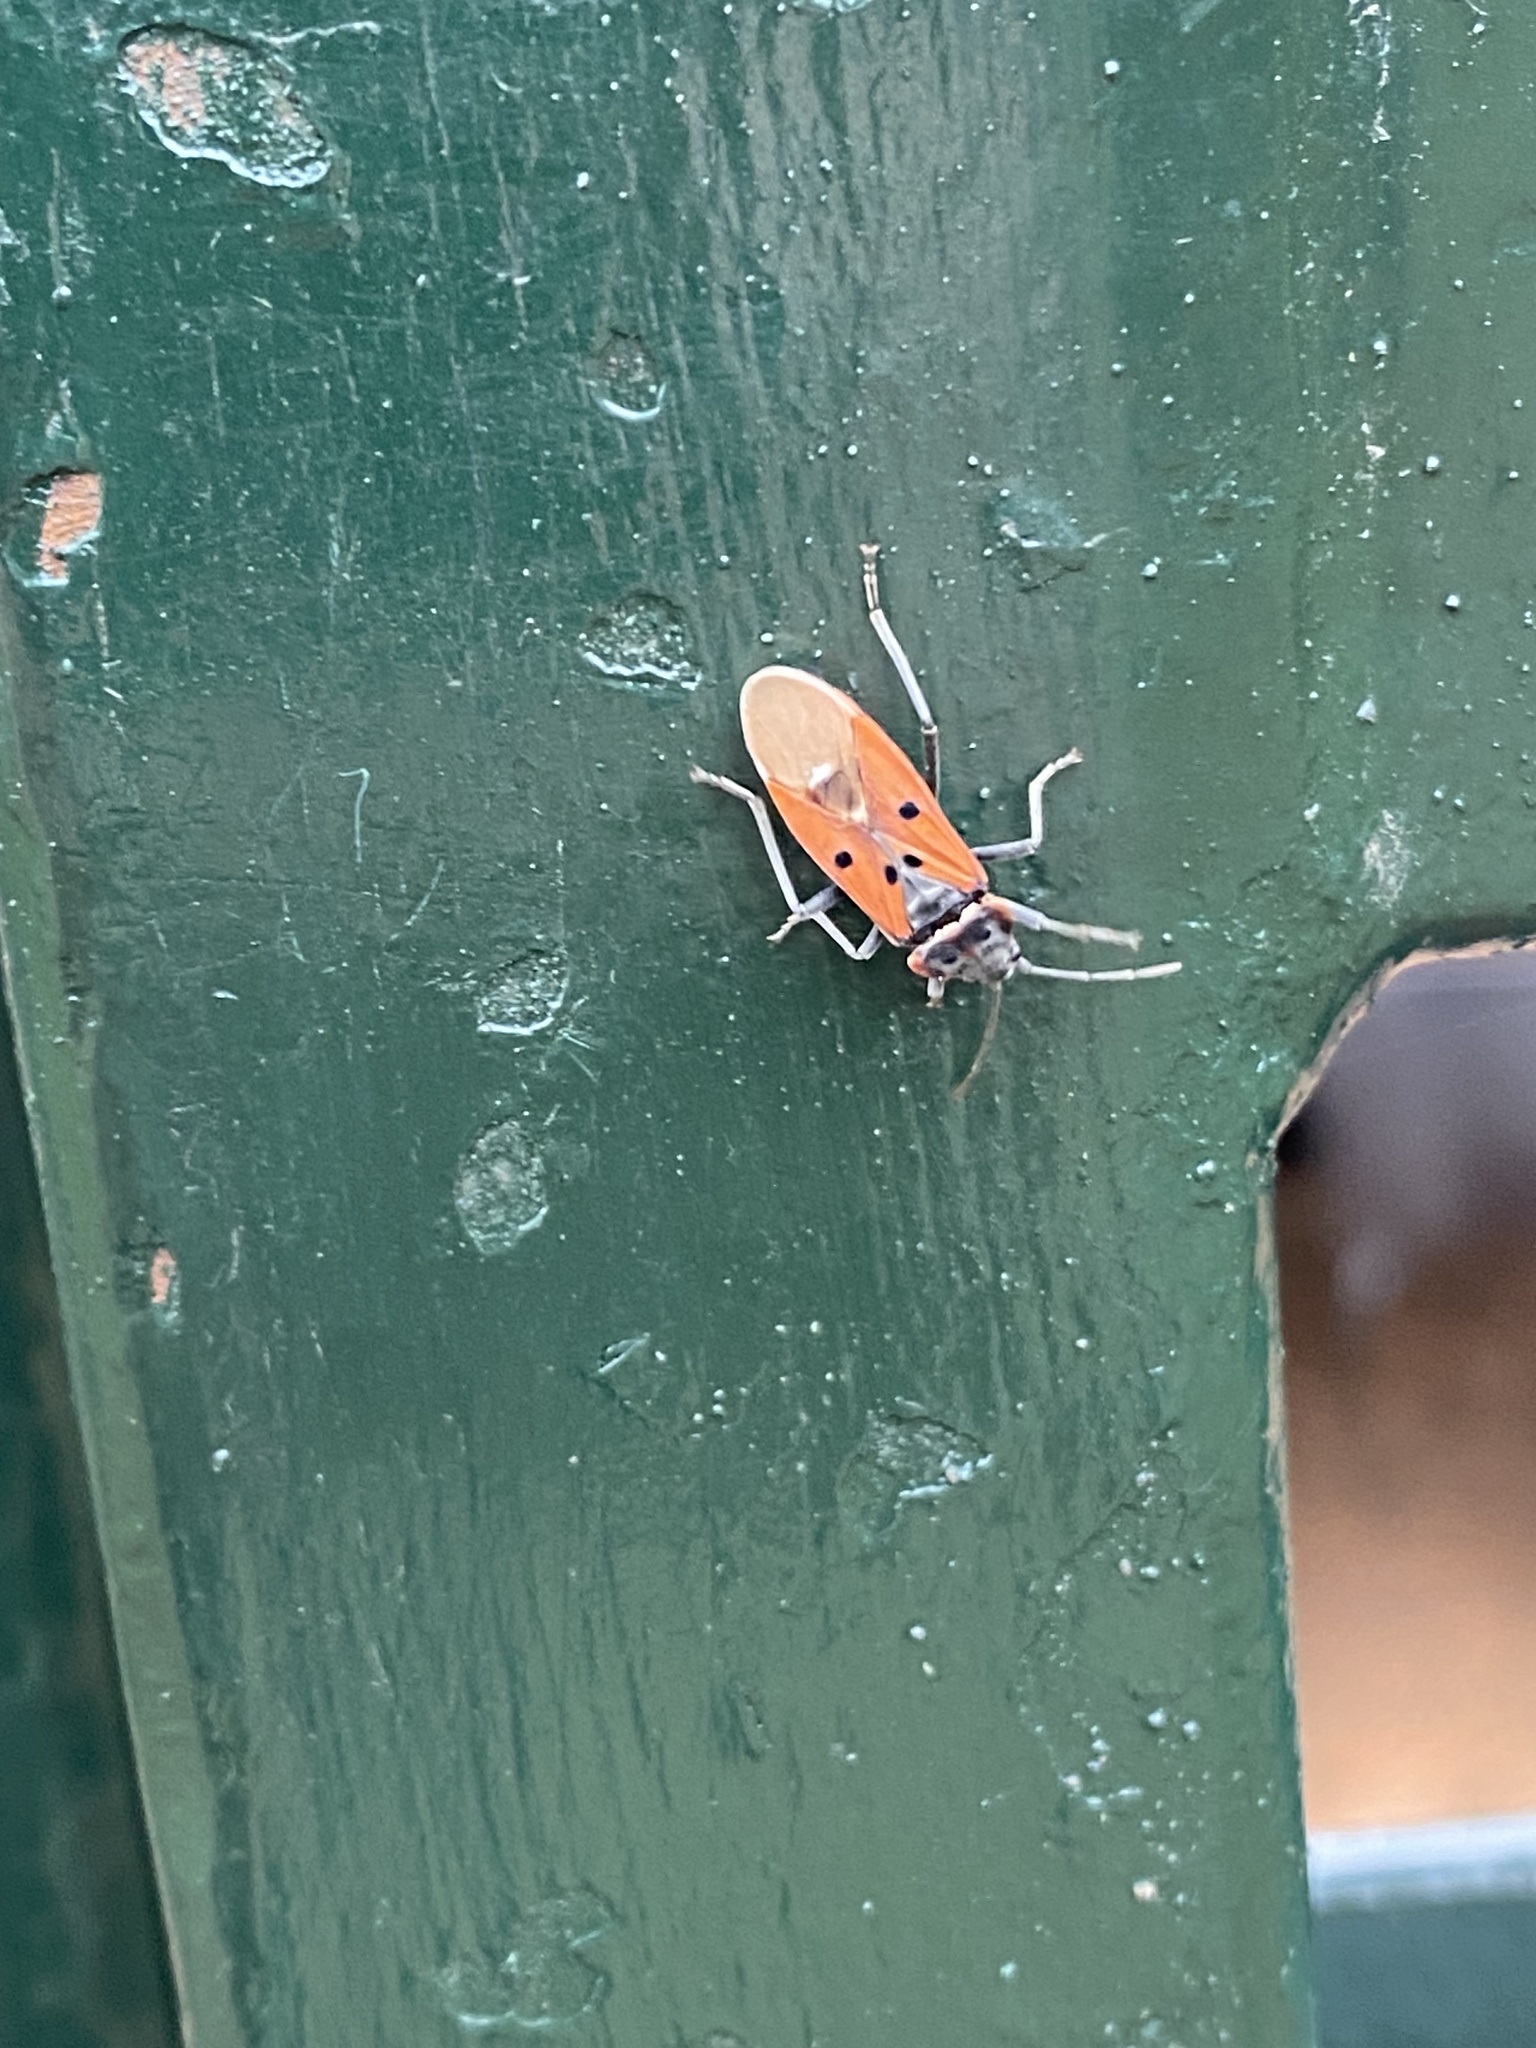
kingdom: Animalia
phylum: Arthropoda
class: Insecta
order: Hemiptera
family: Lygaeidae
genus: Lygaeus
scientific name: Lygaeus creticus
